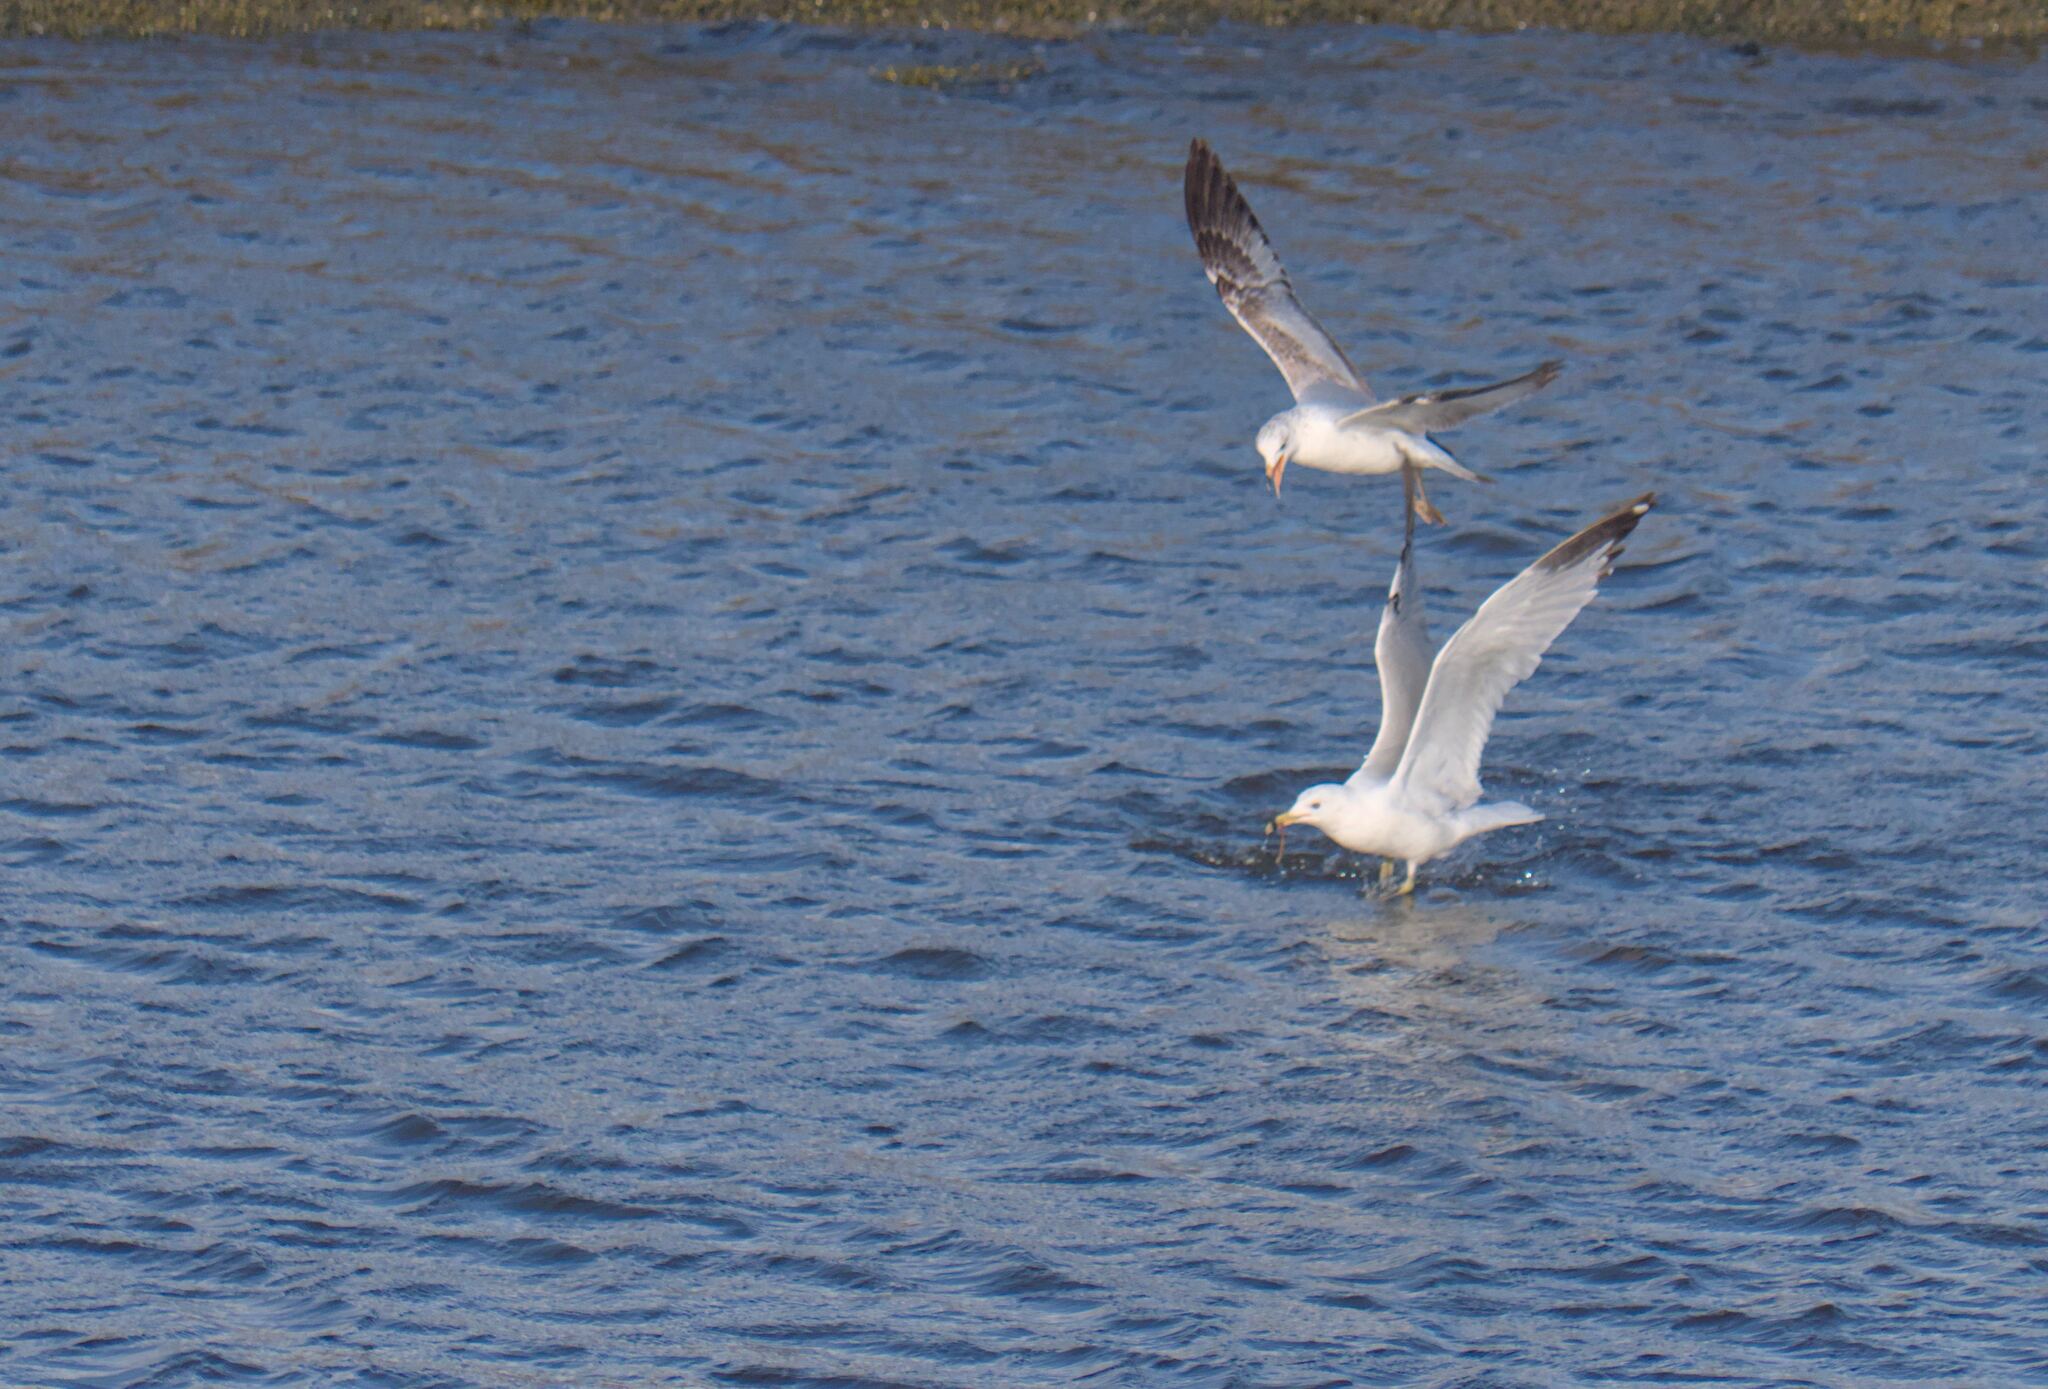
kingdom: Animalia
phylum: Chordata
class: Aves
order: Charadriiformes
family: Laridae
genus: Larus
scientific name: Larus delawarensis
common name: Ring-billed gull
